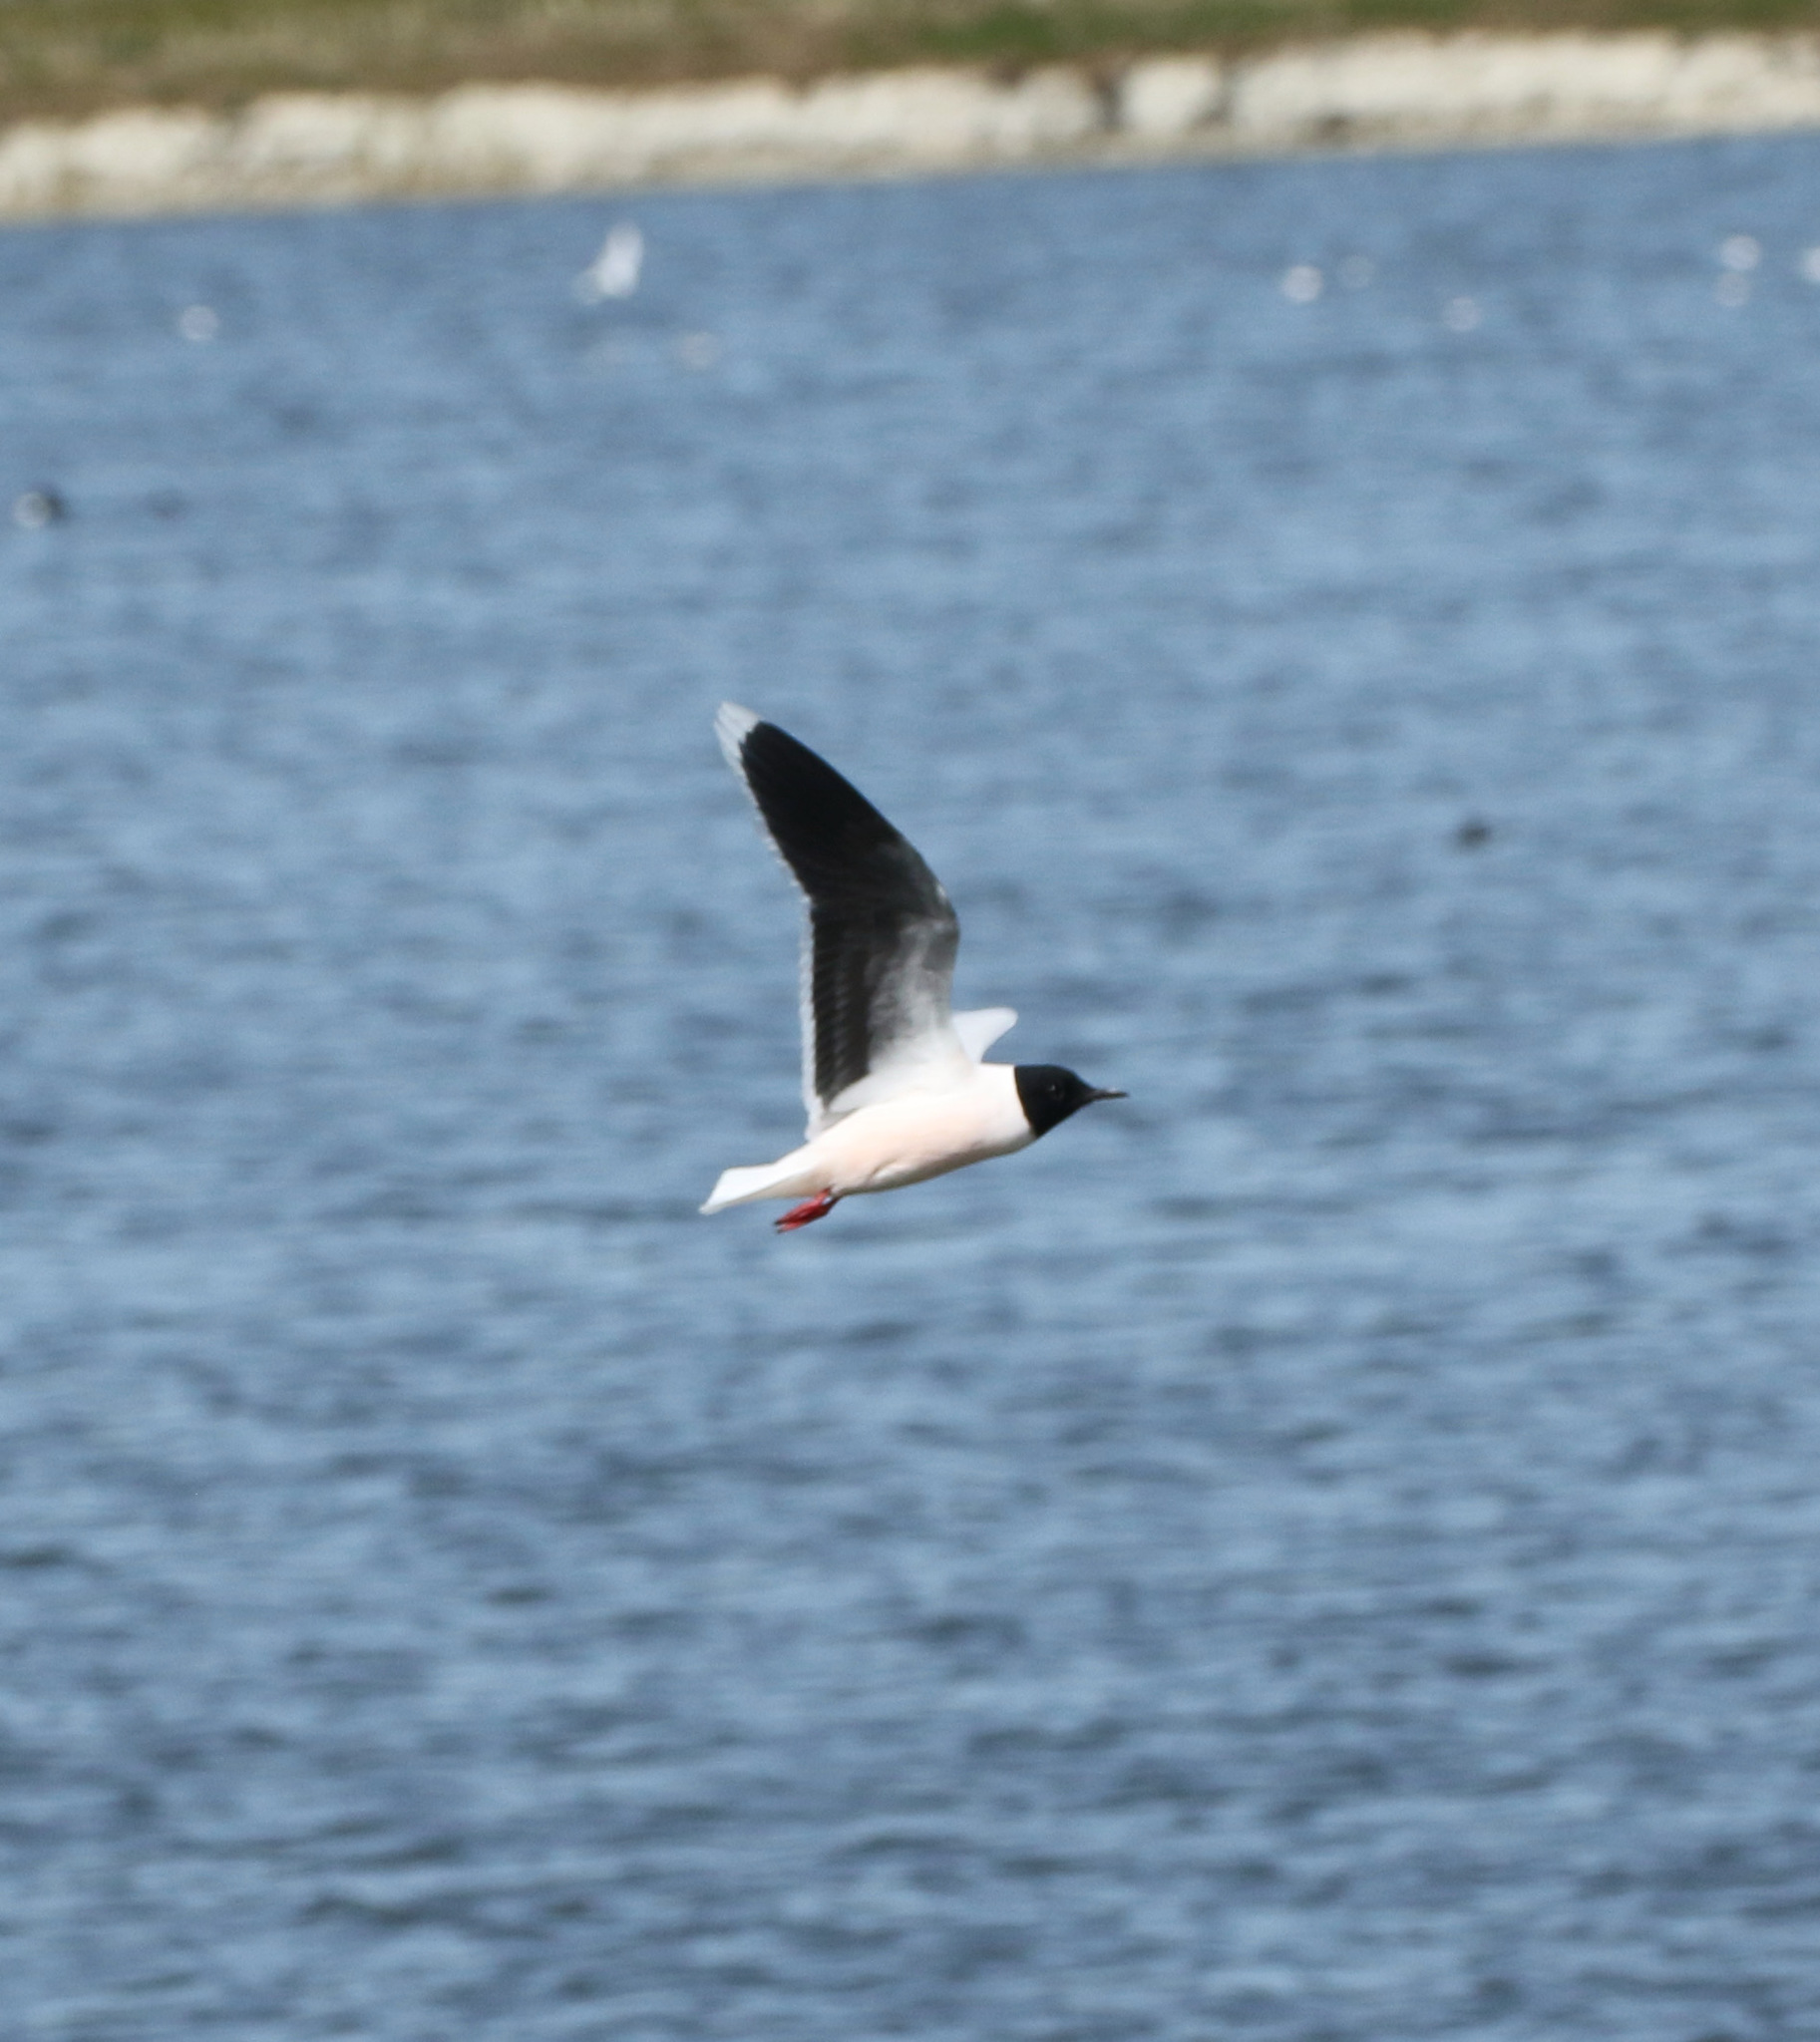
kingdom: Animalia
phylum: Chordata
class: Aves
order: Charadriiformes
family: Laridae
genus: Hydrocoloeus
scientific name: Hydrocoloeus minutus
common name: Little gull
